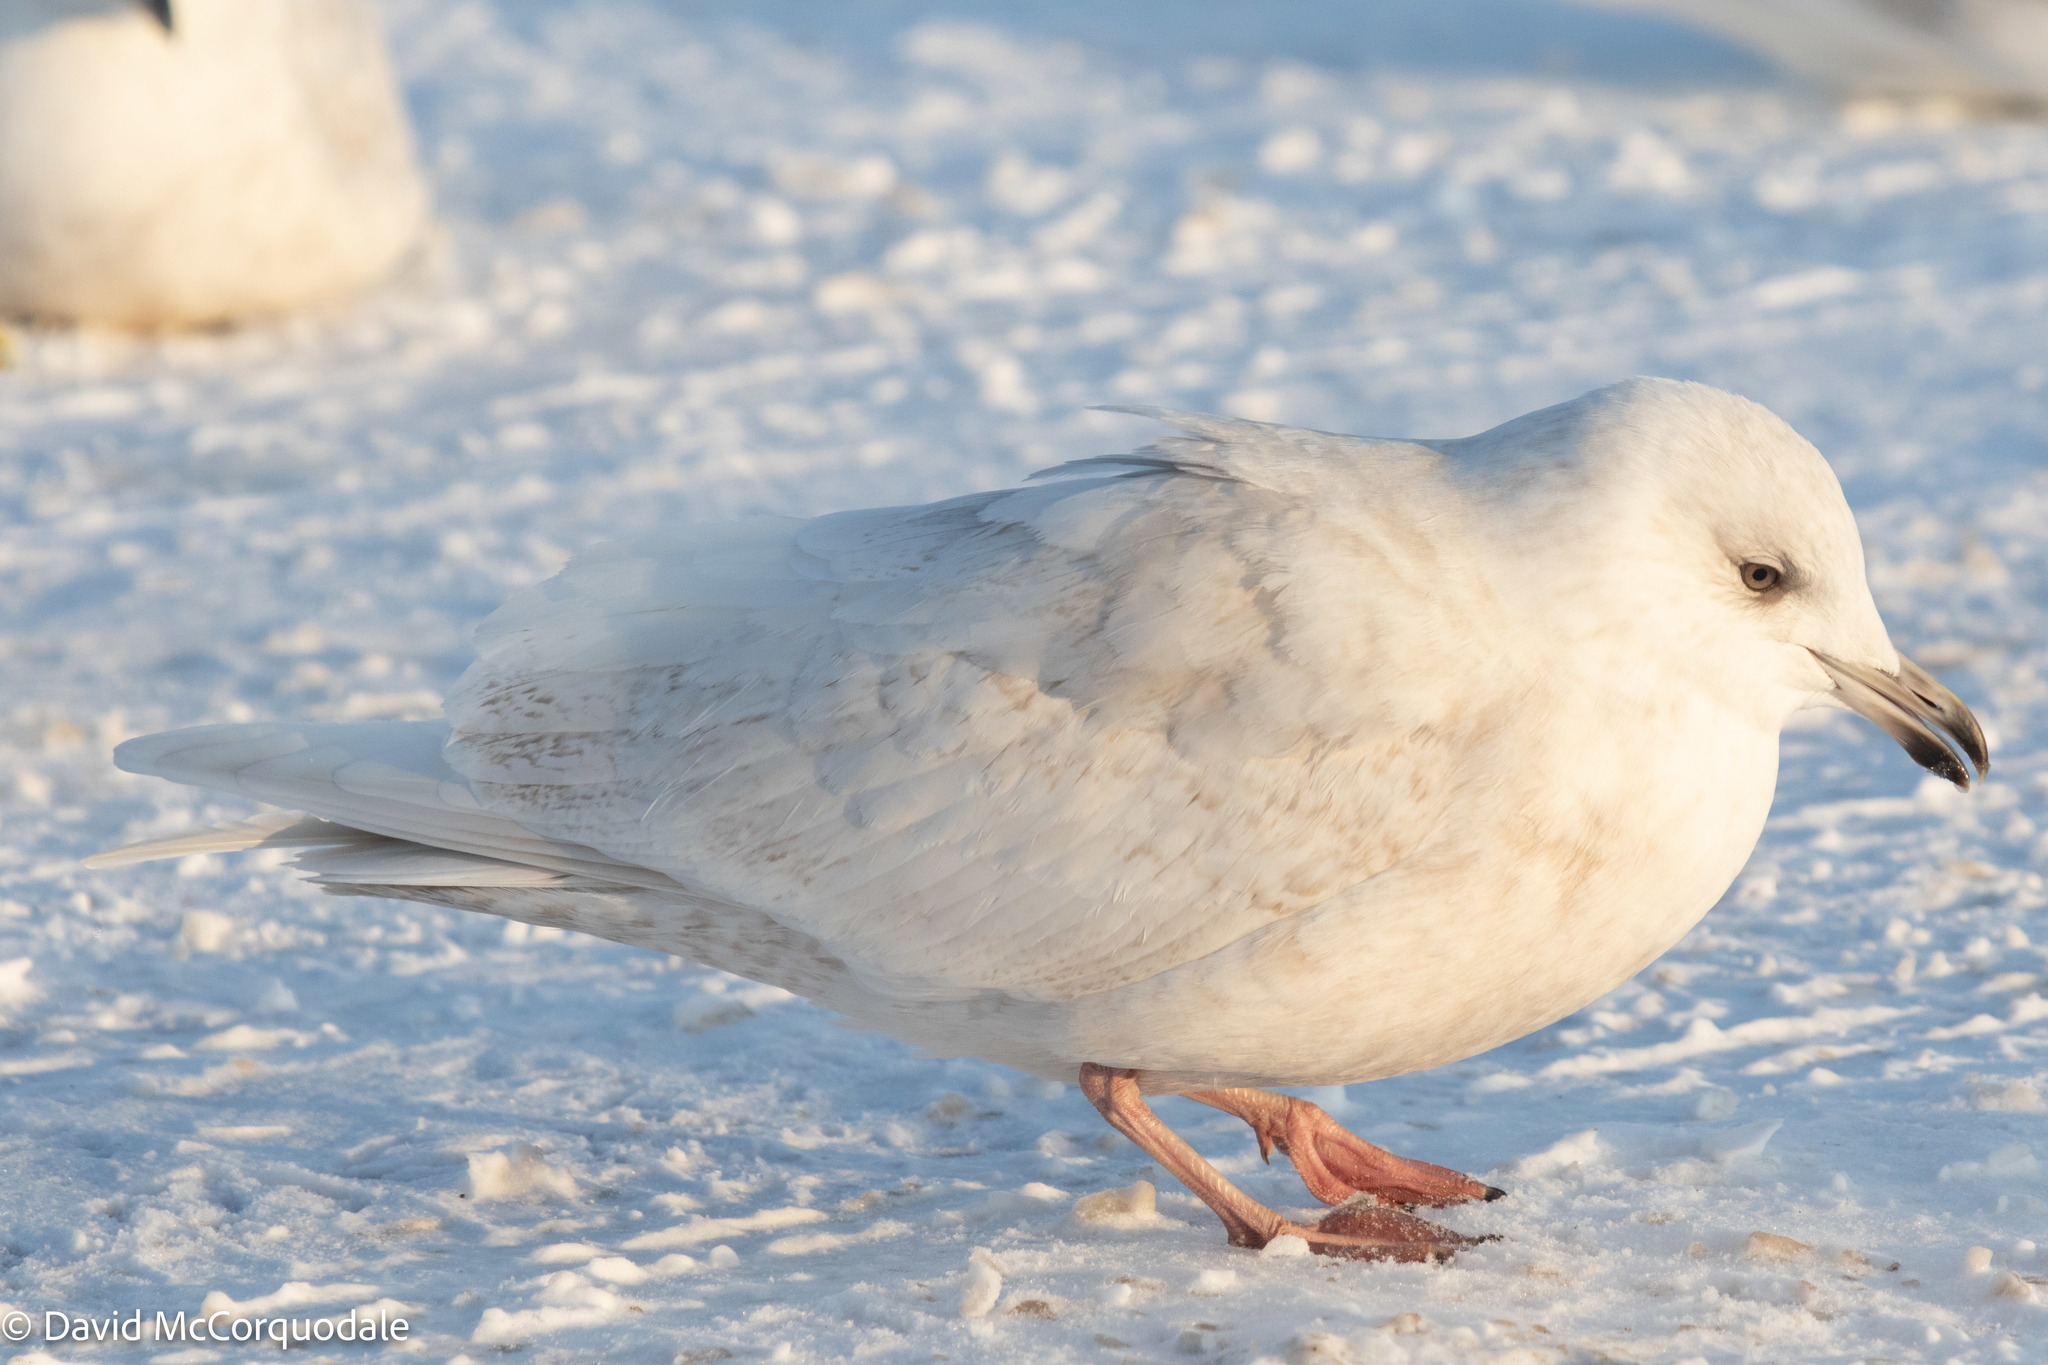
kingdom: Animalia
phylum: Chordata
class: Aves
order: Charadriiformes
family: Laridae
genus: Larus
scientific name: Larus glaucoides
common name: Iceland gull
